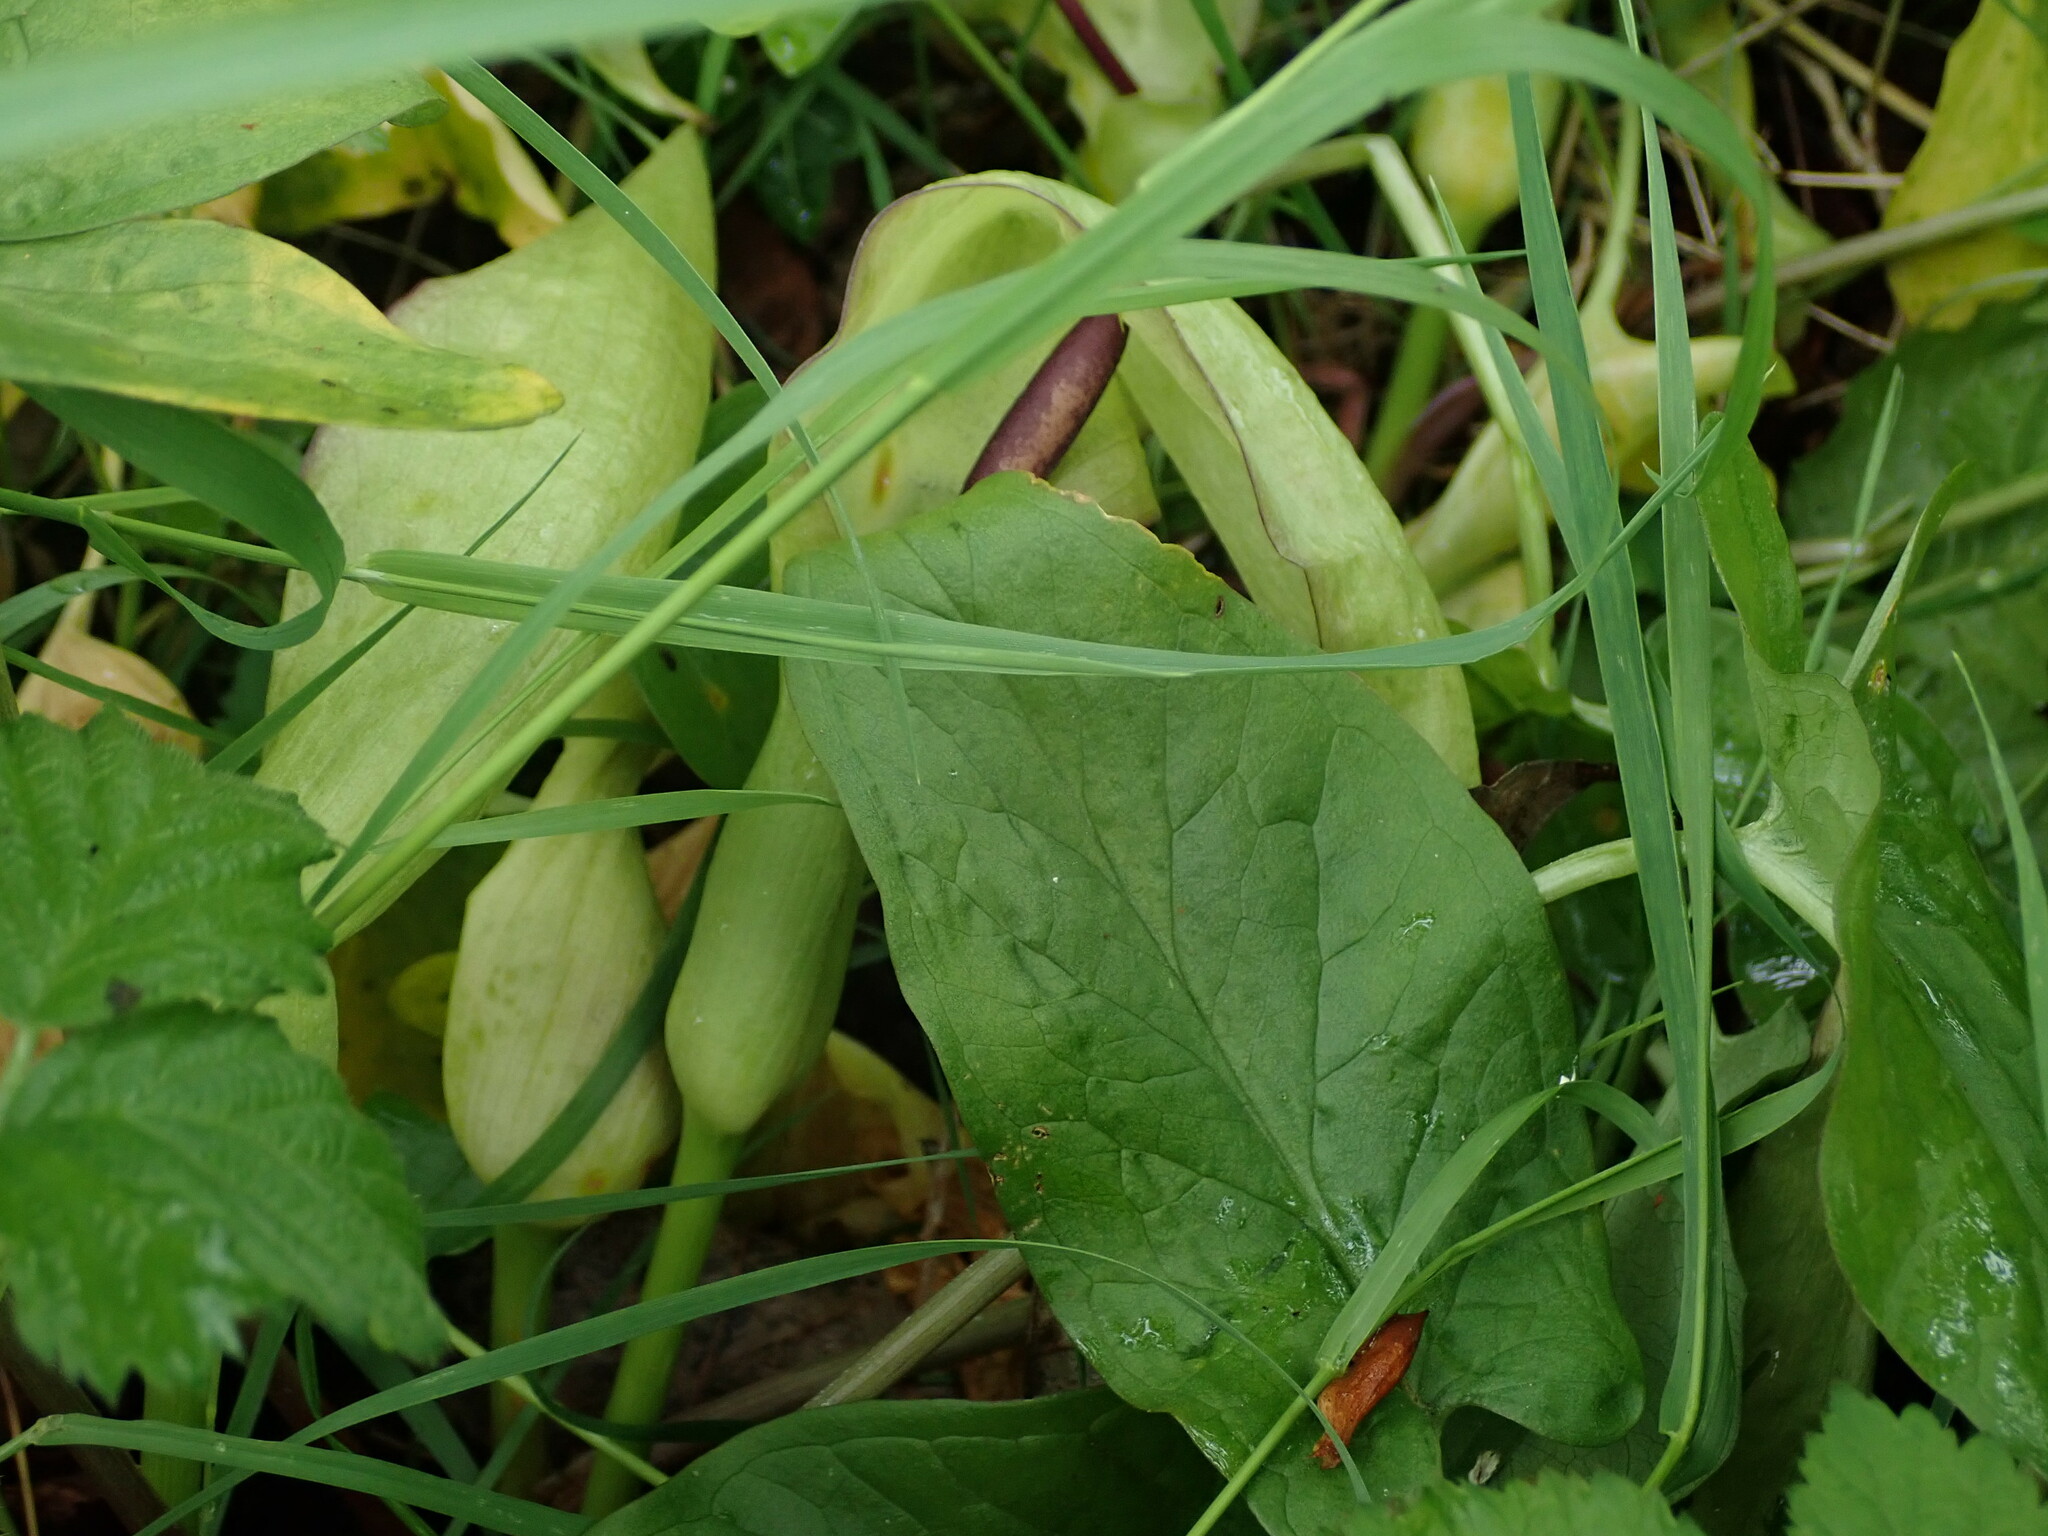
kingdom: Plantae
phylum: Tracheophyta
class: Liliopsida
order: Alismatales
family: Araceae
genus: Arum
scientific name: Arum maculatum
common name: Lords-and-ladies
